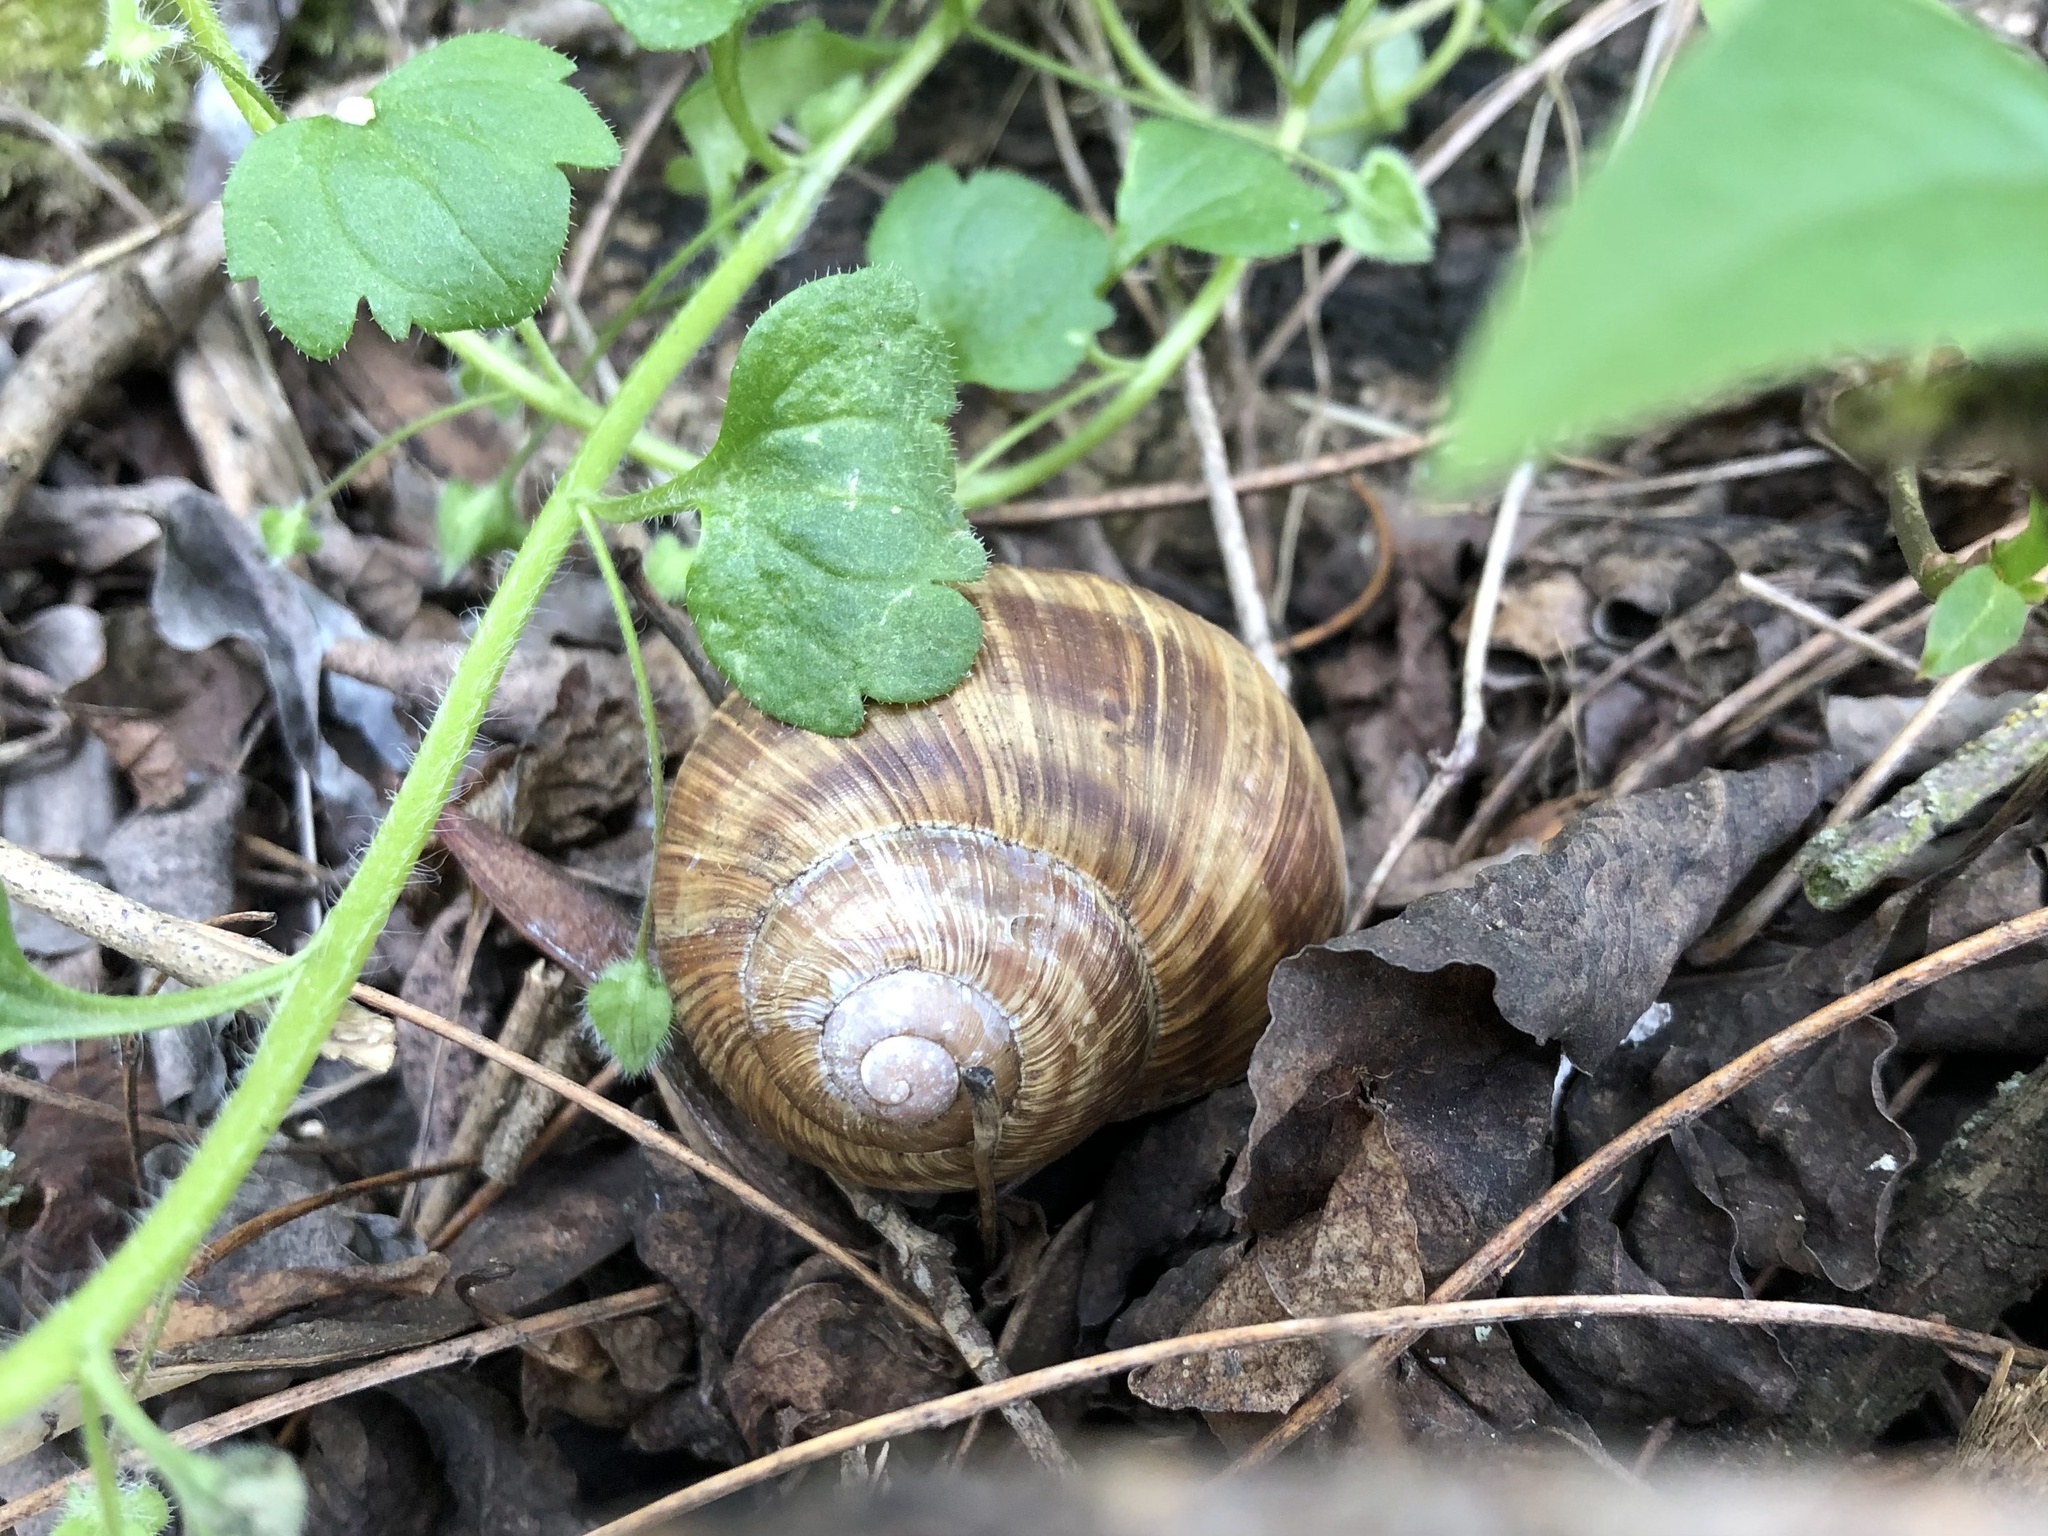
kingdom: Animalia
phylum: Mollusca
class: Gastropoda
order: Stylommatophora
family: Helicidae
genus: Helix
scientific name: Helix pomatia
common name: Roman snail
